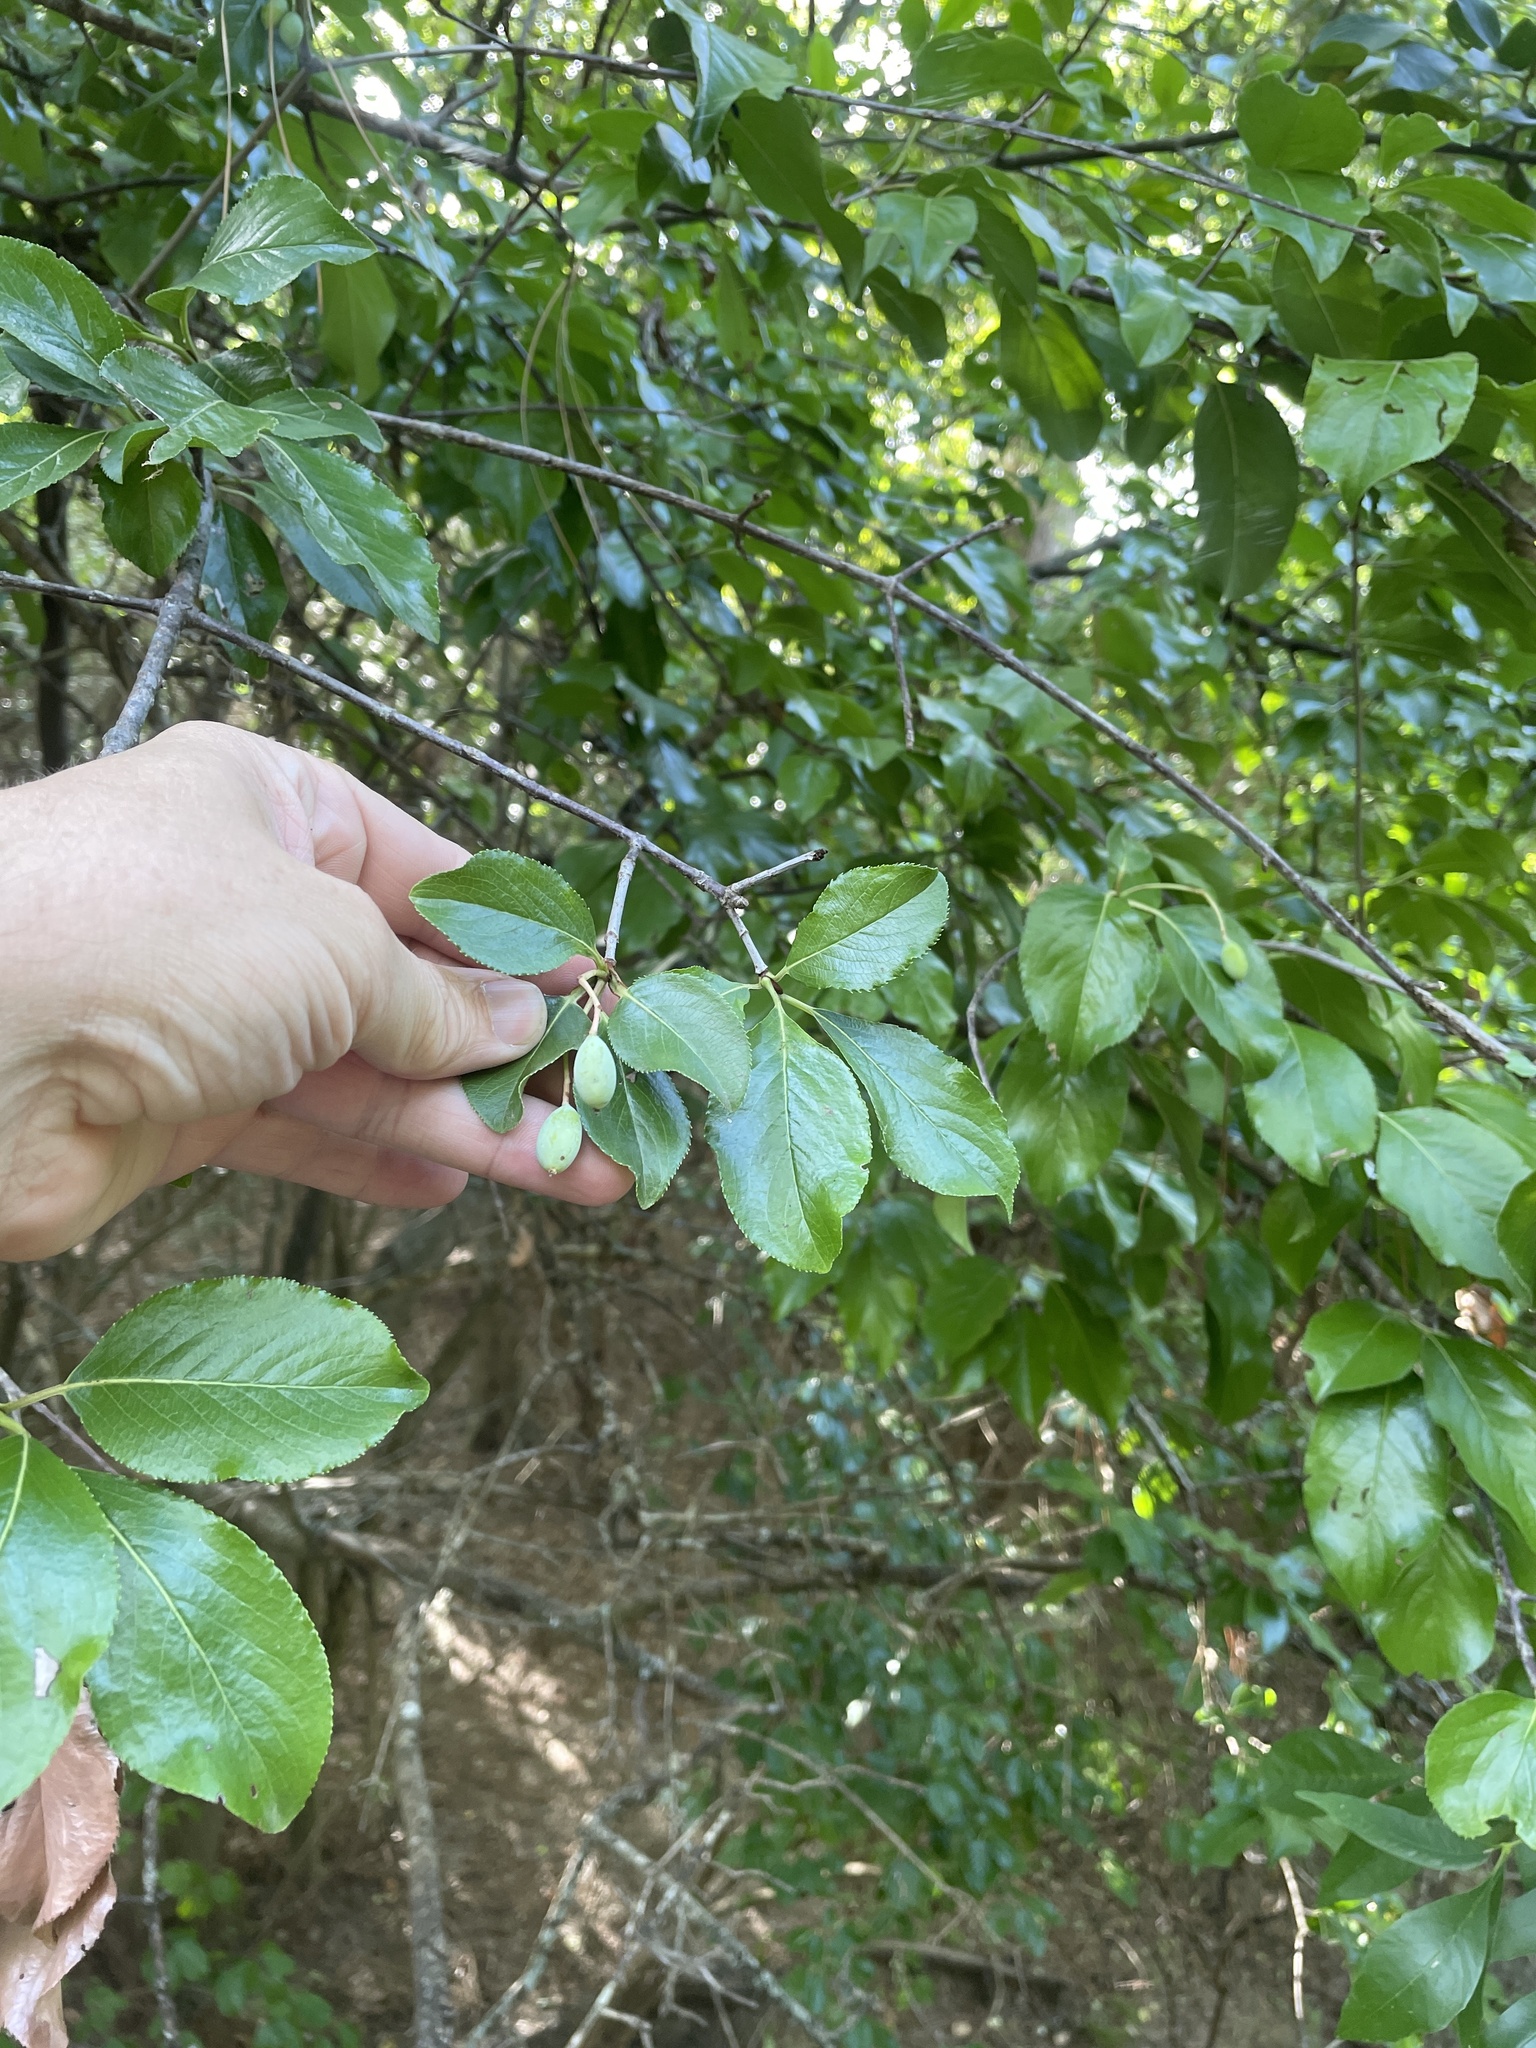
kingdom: Plantae
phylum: Tracheophyta
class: Magnoliopsida
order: Dipsacales
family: Viburnaceae
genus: Viburnum
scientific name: Viburnum rufidulum
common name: Blue haw
